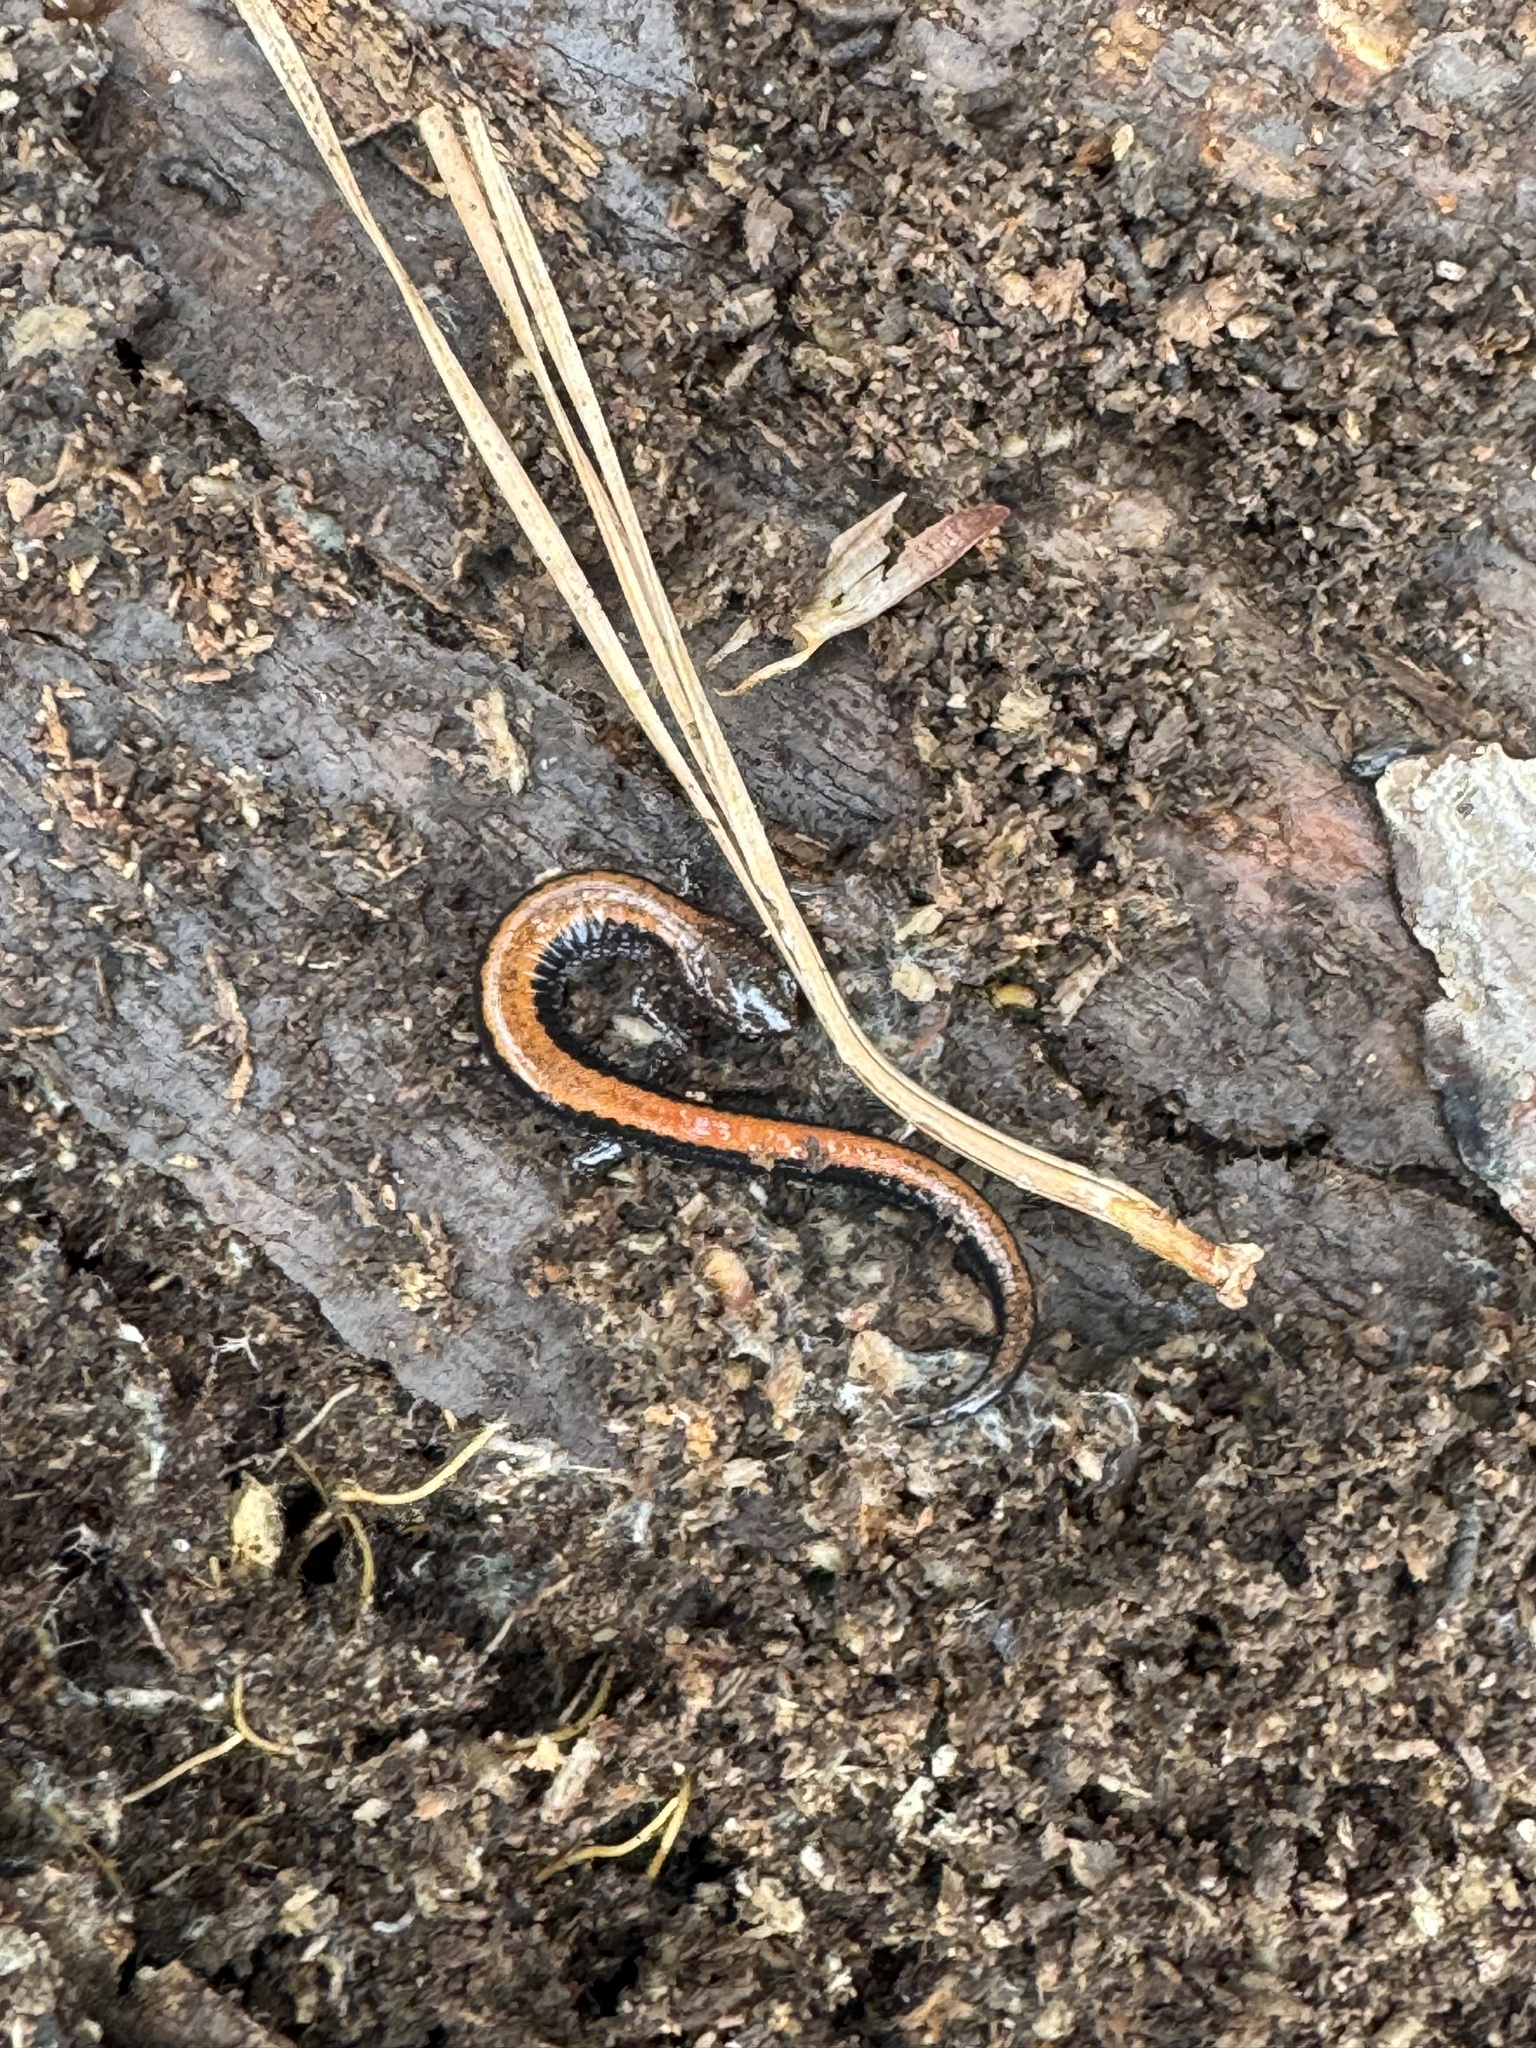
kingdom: Animalia
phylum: Chordata
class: Amphibia
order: Caudata
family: Plethodontidae
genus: Plethodon
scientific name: Plethodon cinereus
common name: Redback salamander
